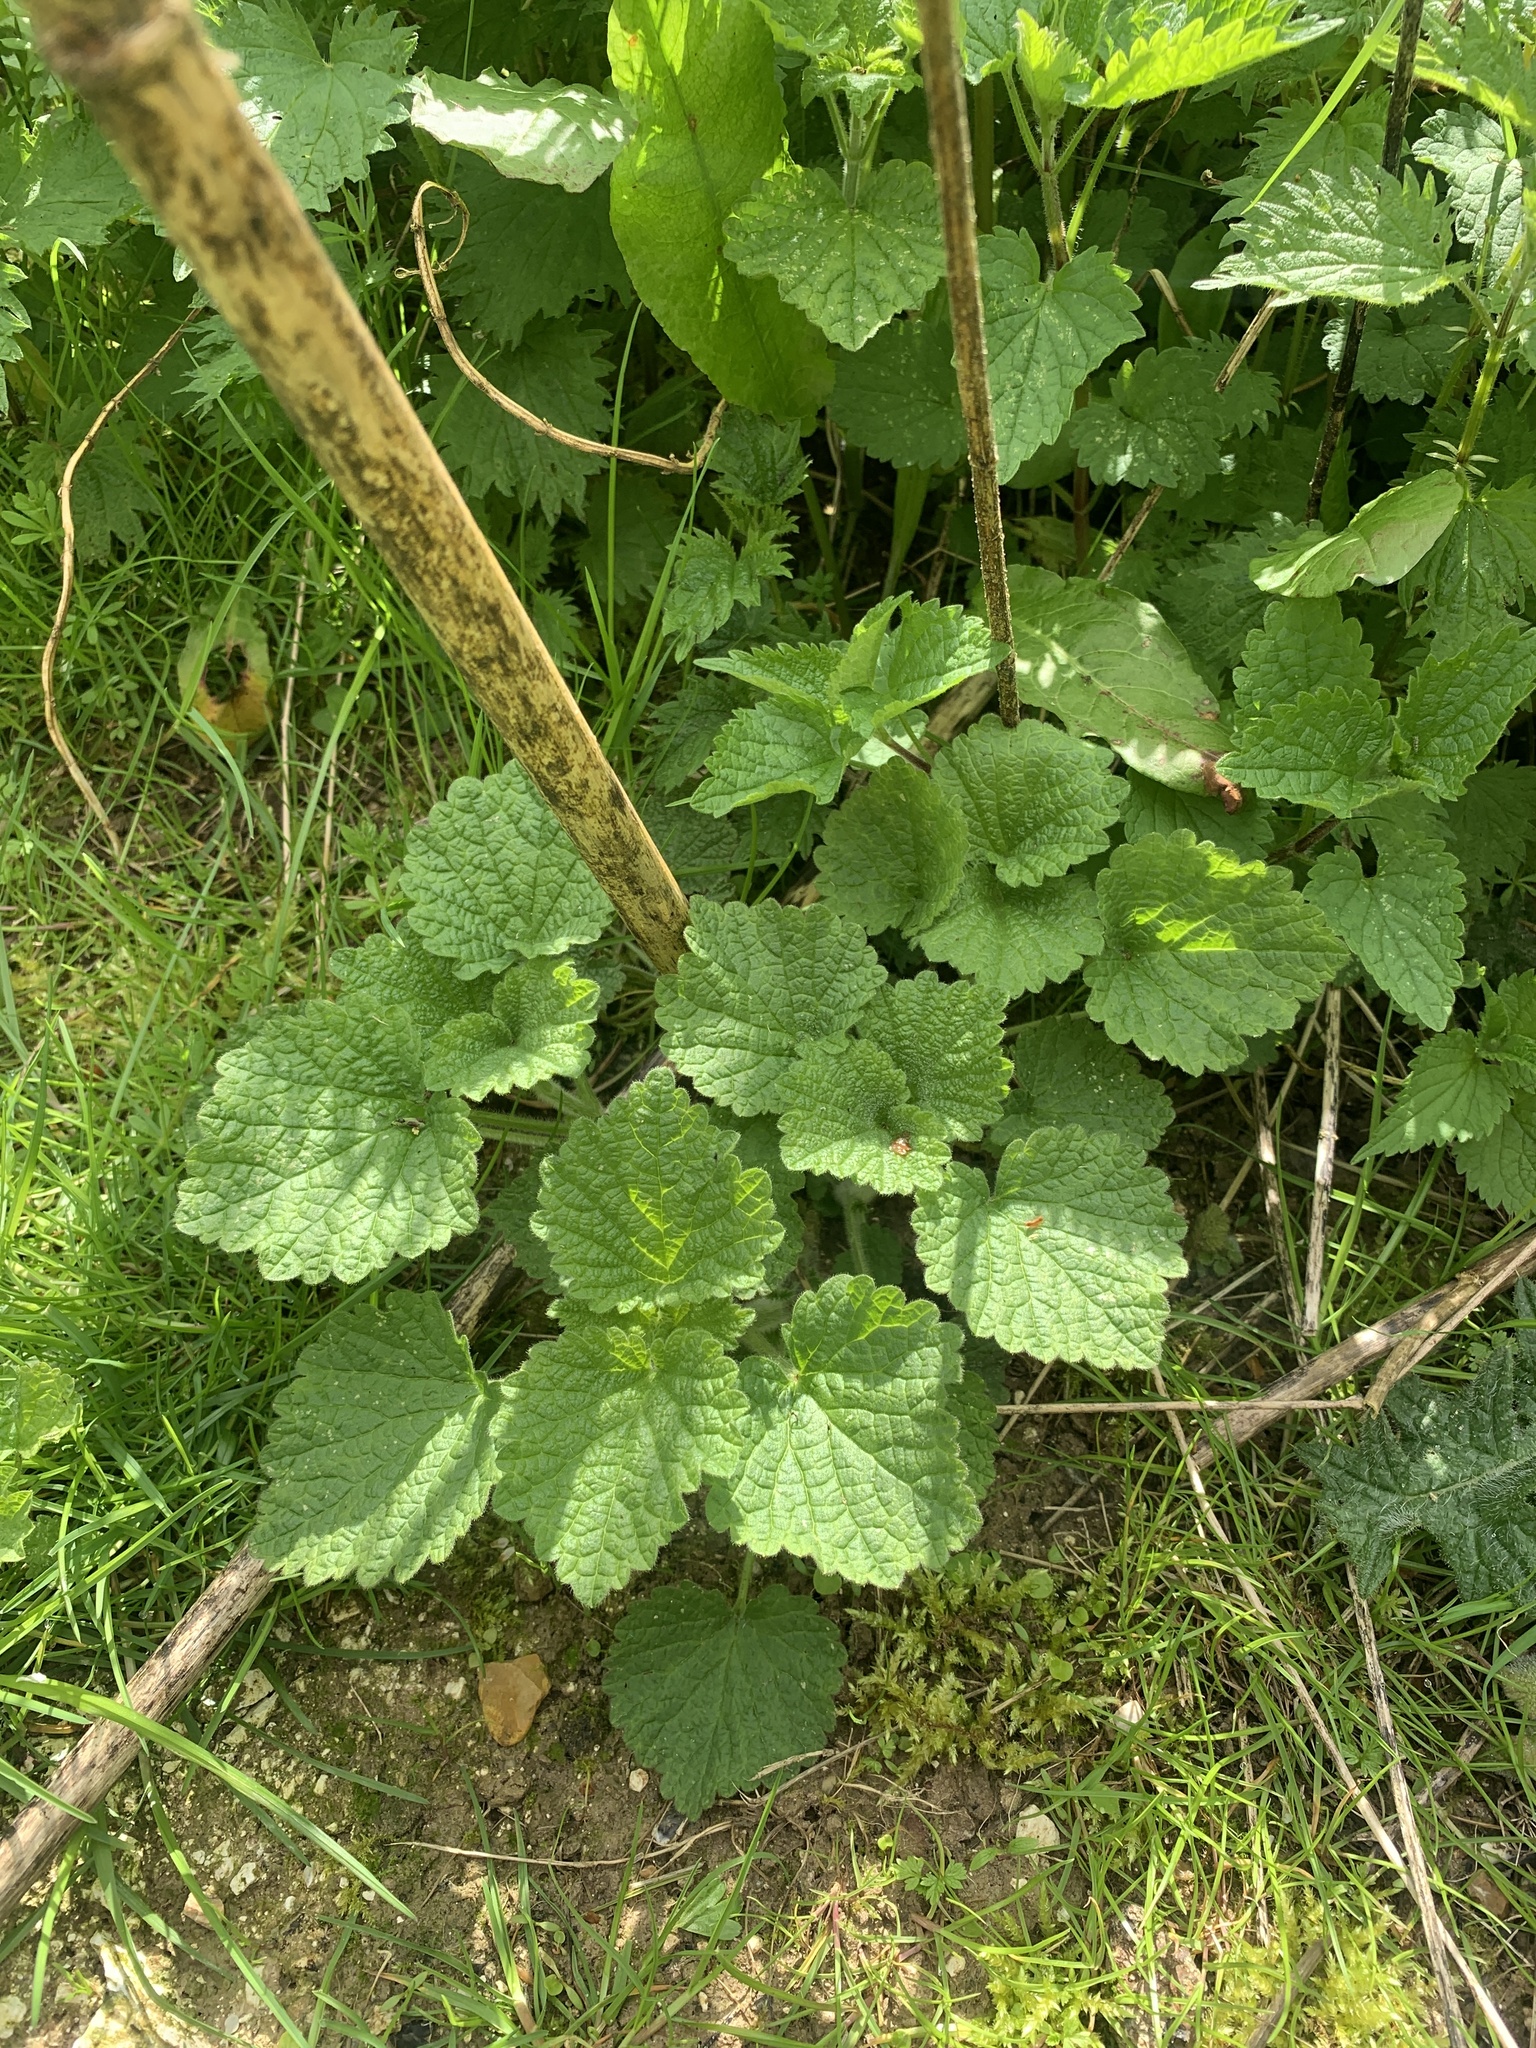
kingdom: Plantae
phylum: Tracheophyta
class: Magnoliopsida
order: Lamiales
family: Lamiaceae
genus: Ballota
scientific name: Ballota nigra
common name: Black horehound
